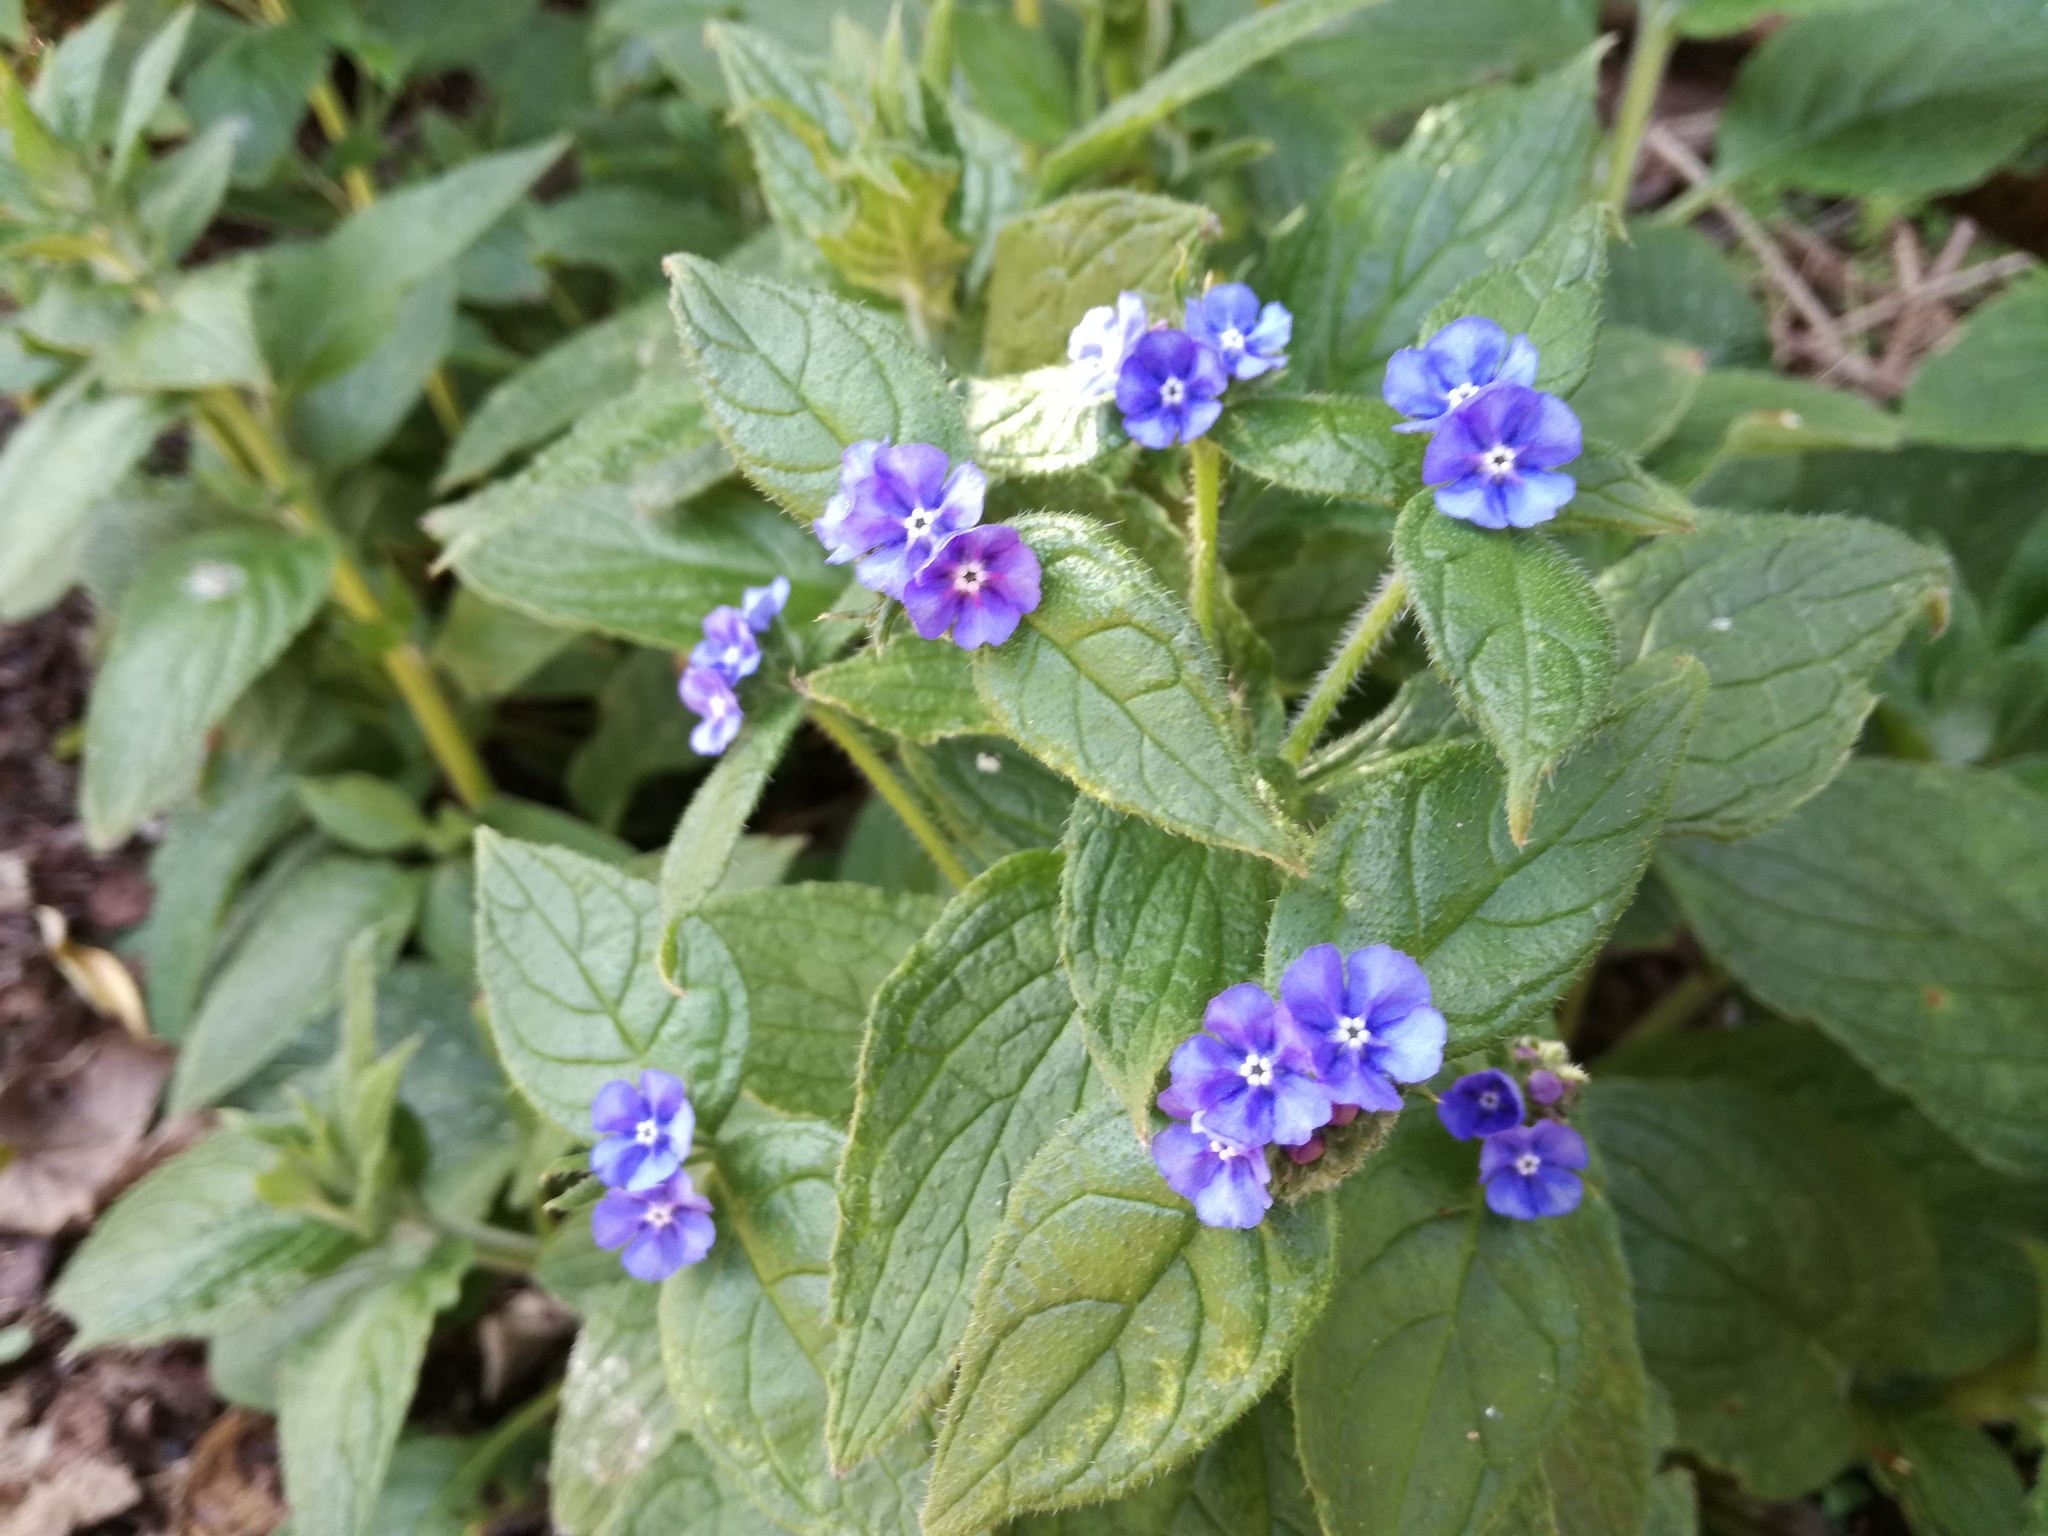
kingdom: Plantae
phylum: Tracheophyta
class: Magnoliopsida
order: Boraginales
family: Boraginaceae
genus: Pentaglottis
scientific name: Pentaglottis sempervirens
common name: Green alkanet
